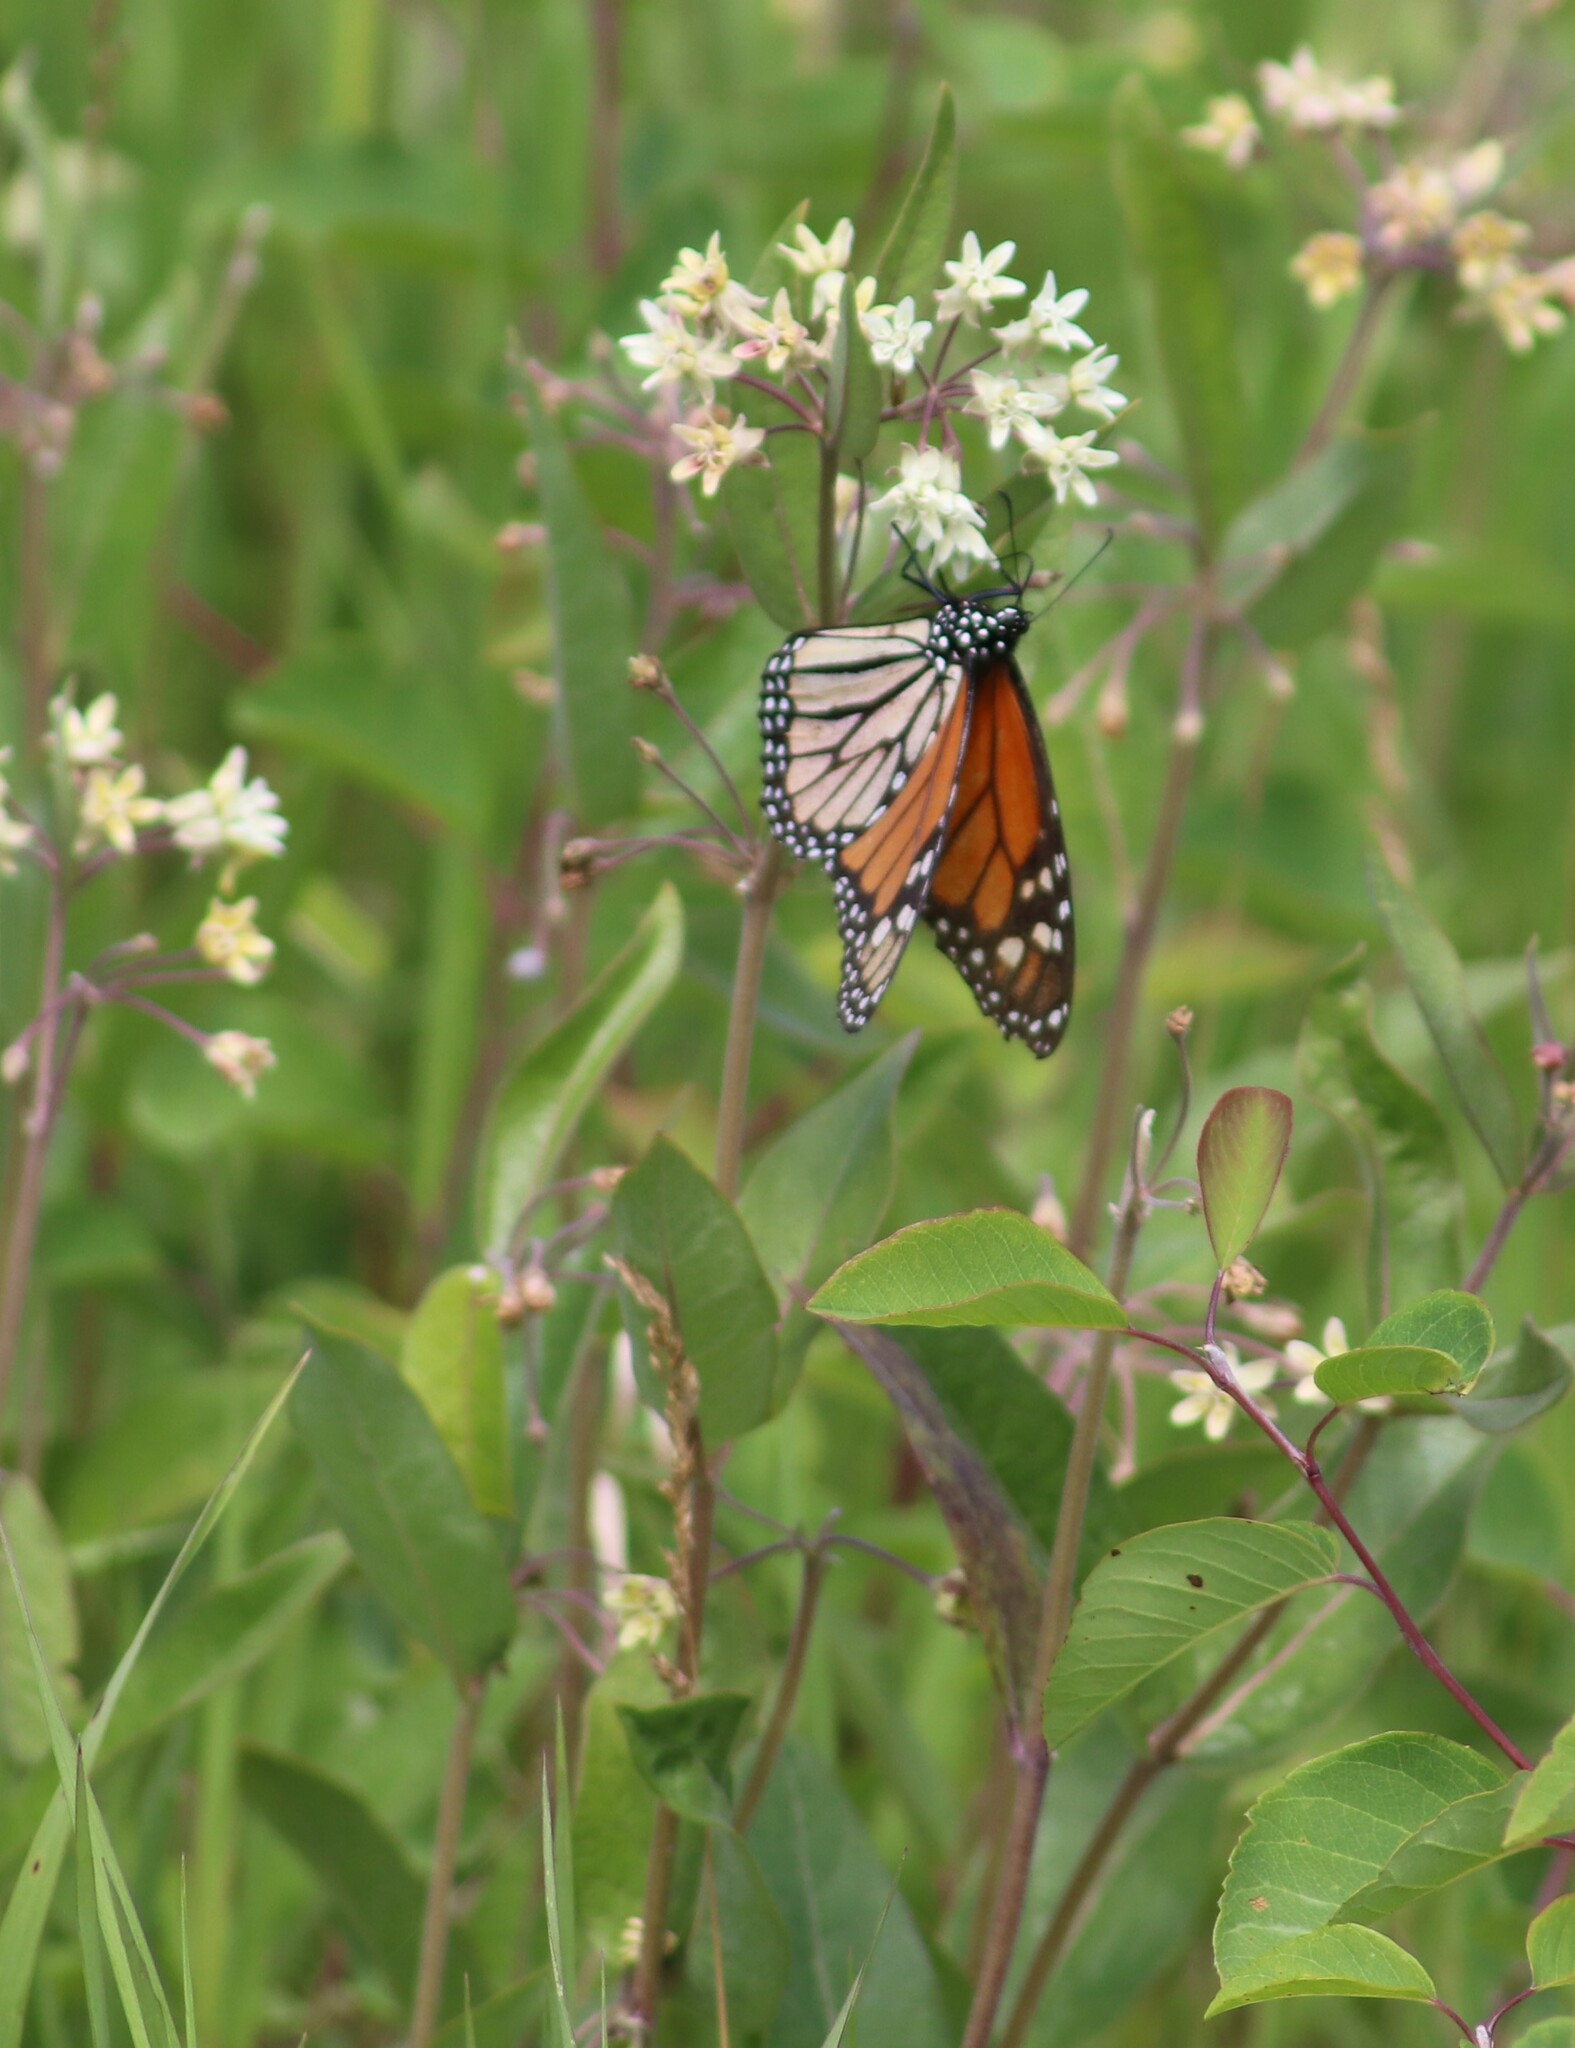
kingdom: Animalia
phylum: Arthropoda
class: Insecta
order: Lepidoptera
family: Nymphalidae
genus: Danaus
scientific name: Danaus plexippus
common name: Monarch
